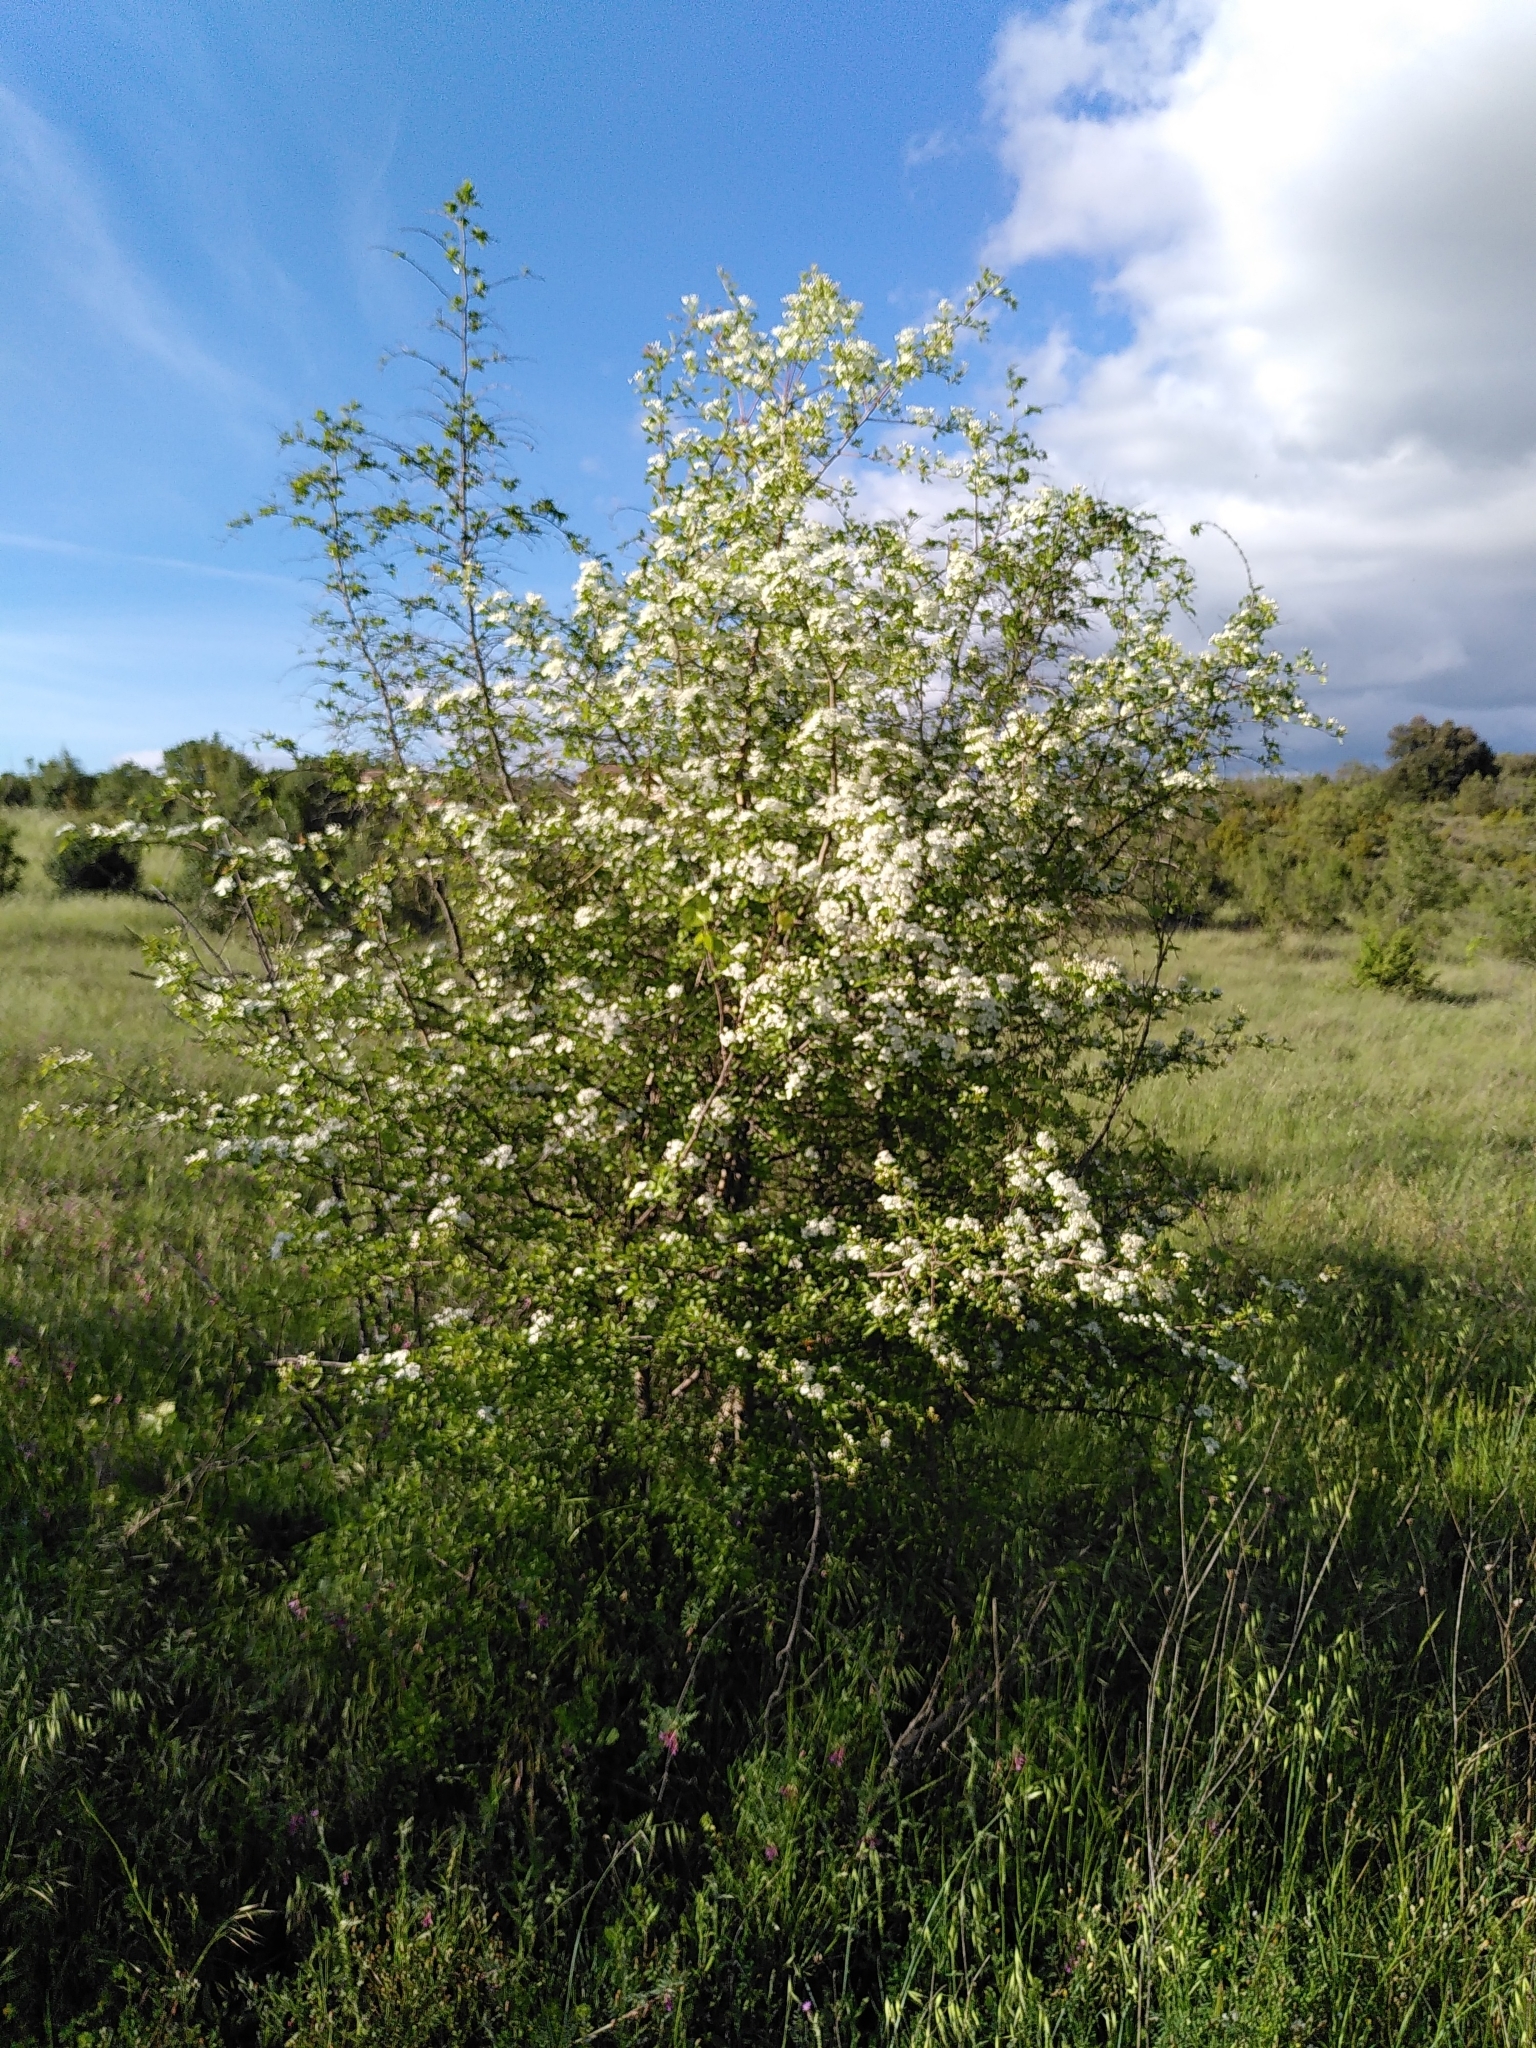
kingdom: Plantae
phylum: Tracheophyta
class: Magnoliopsida
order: Rosales
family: Rosaceae
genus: Crataegus
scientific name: Crataegus monogyna
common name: Hawthorn
